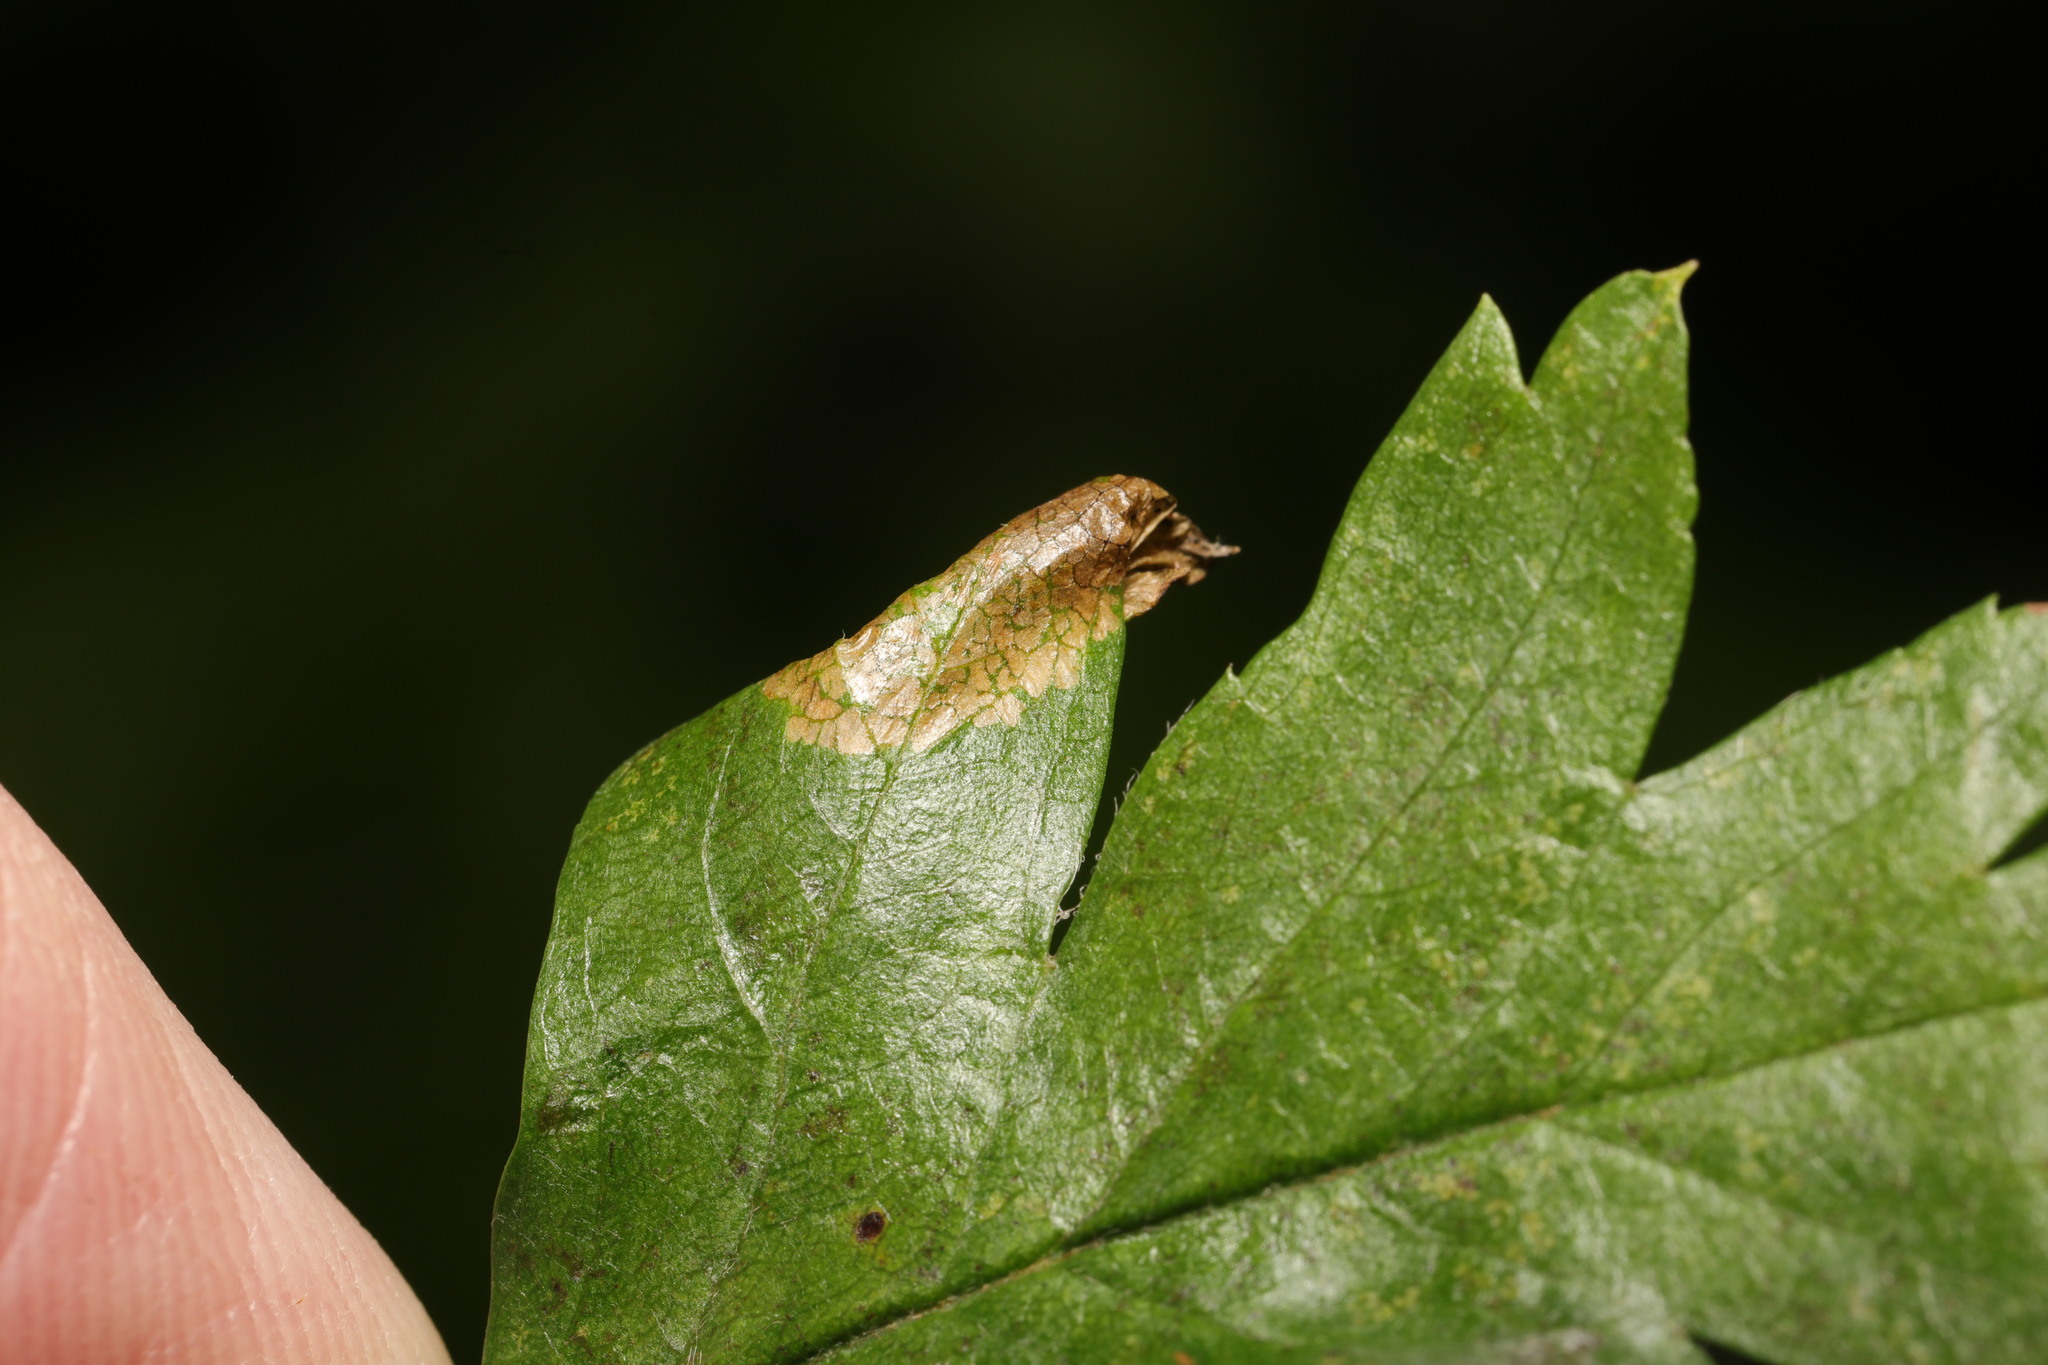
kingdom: Animalia
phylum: Arthropoda
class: Insecta
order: Lepidoptera
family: Gracillariidae
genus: Phyllonorycter
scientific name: Phyllonorycter oxyacanthae
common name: Common thorn midget
